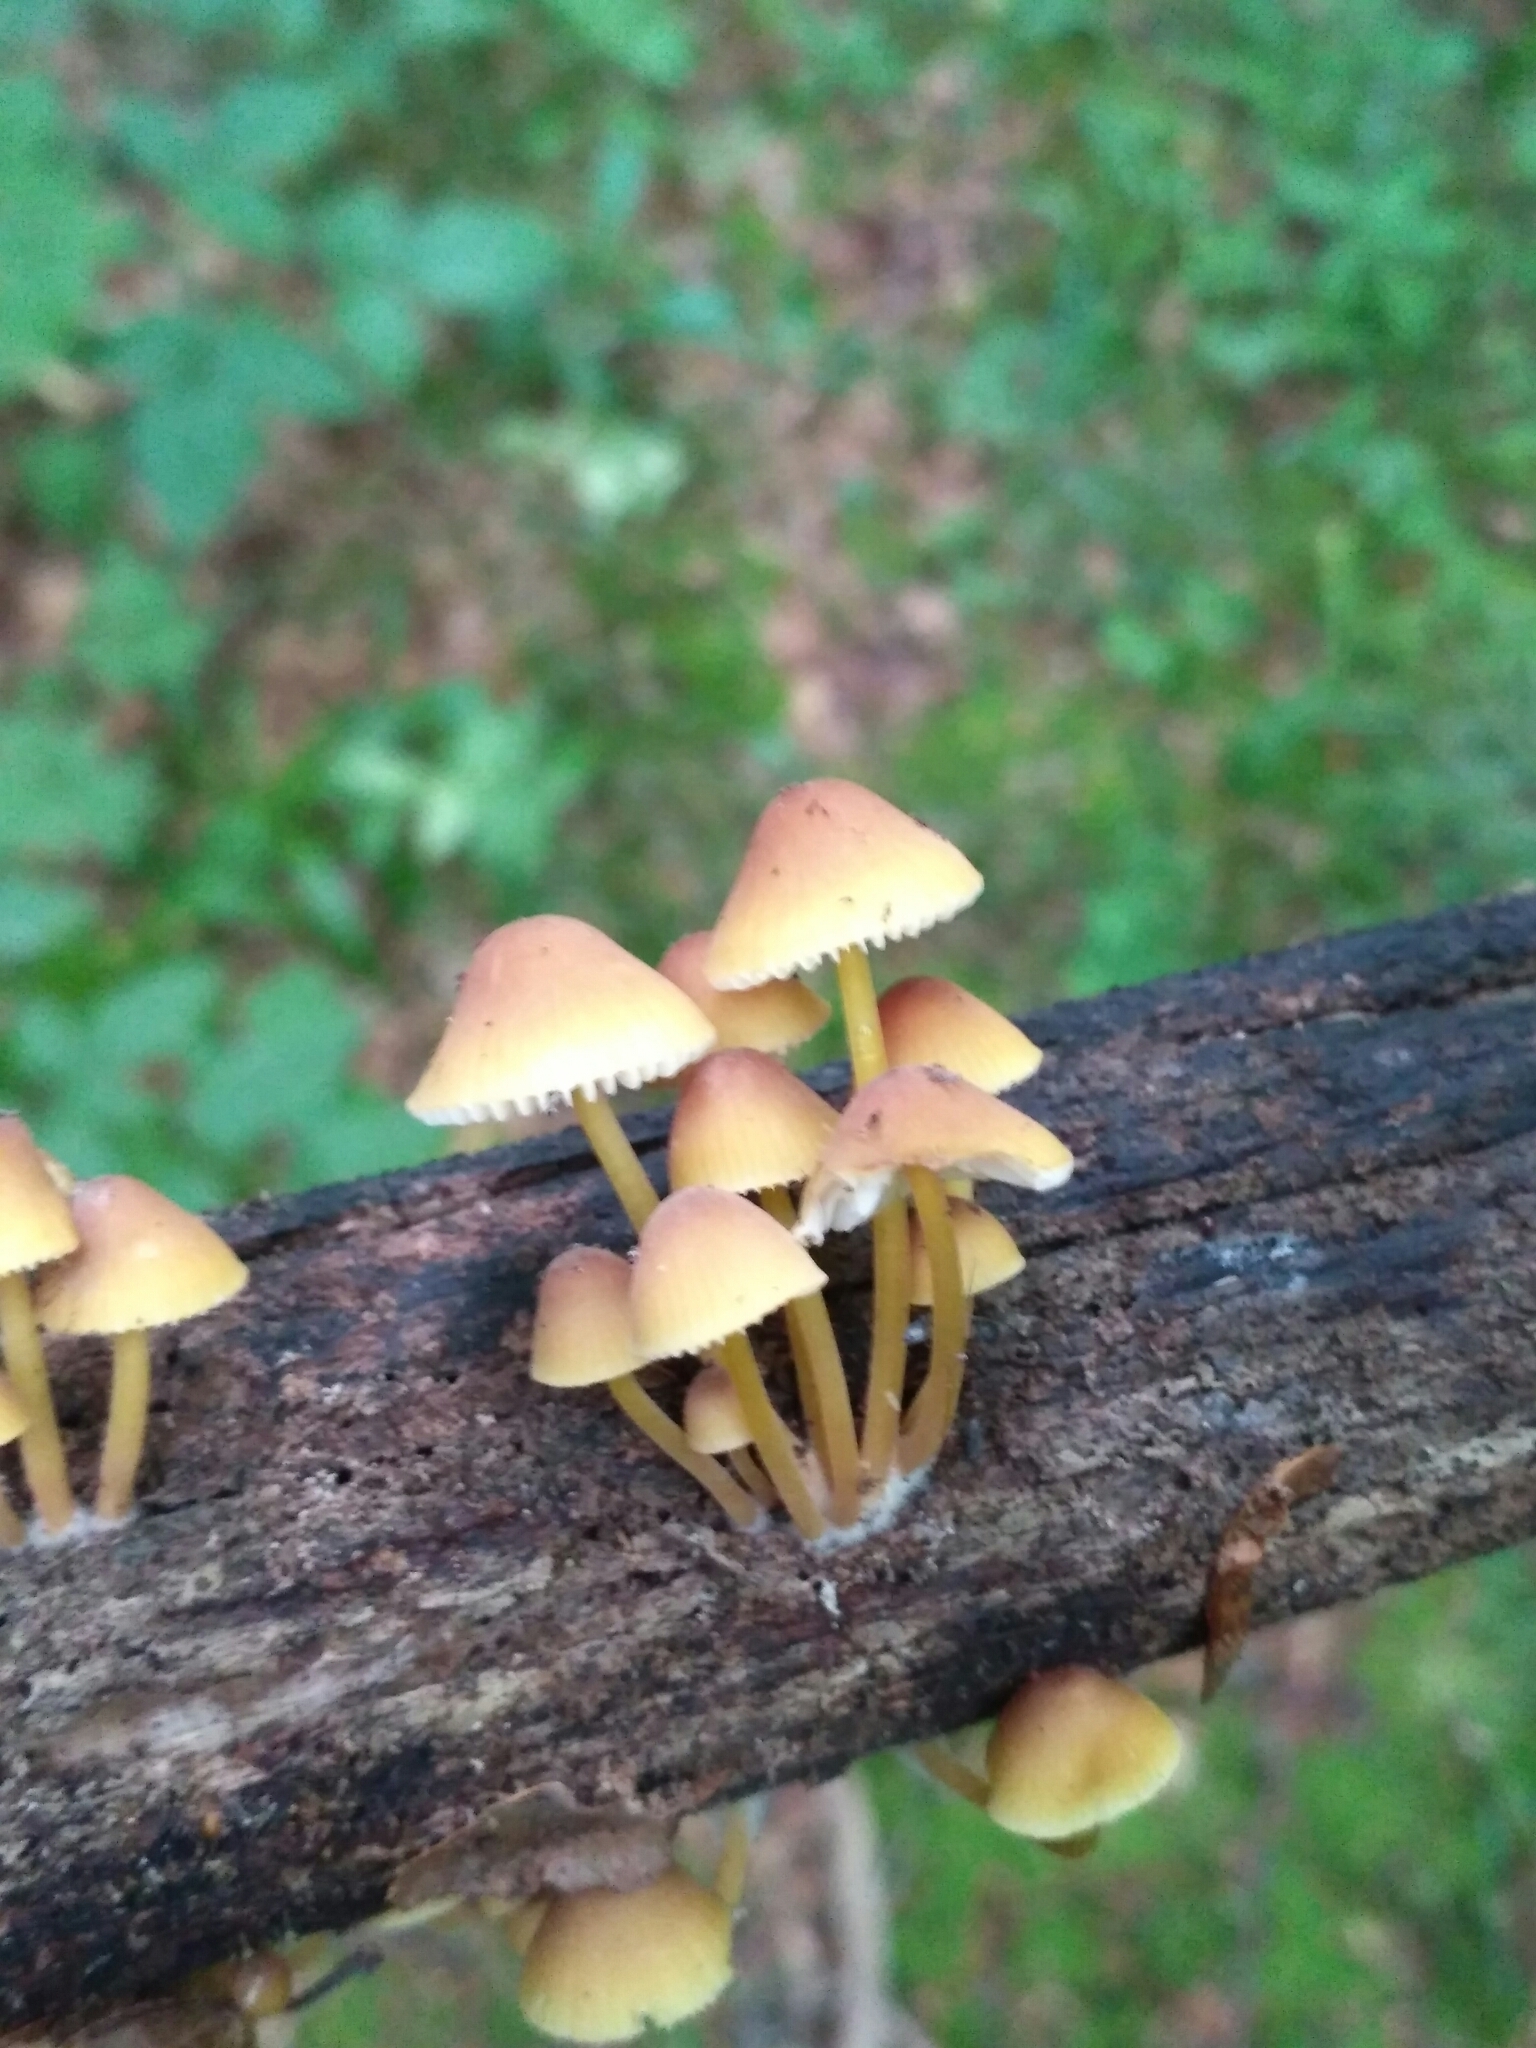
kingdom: Fungi
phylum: Basidiomycota
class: Agaricomycetes
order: Agaricales
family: Mycenaceae
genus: Mycena
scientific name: Mycena renati
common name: Beautiful bonnet
